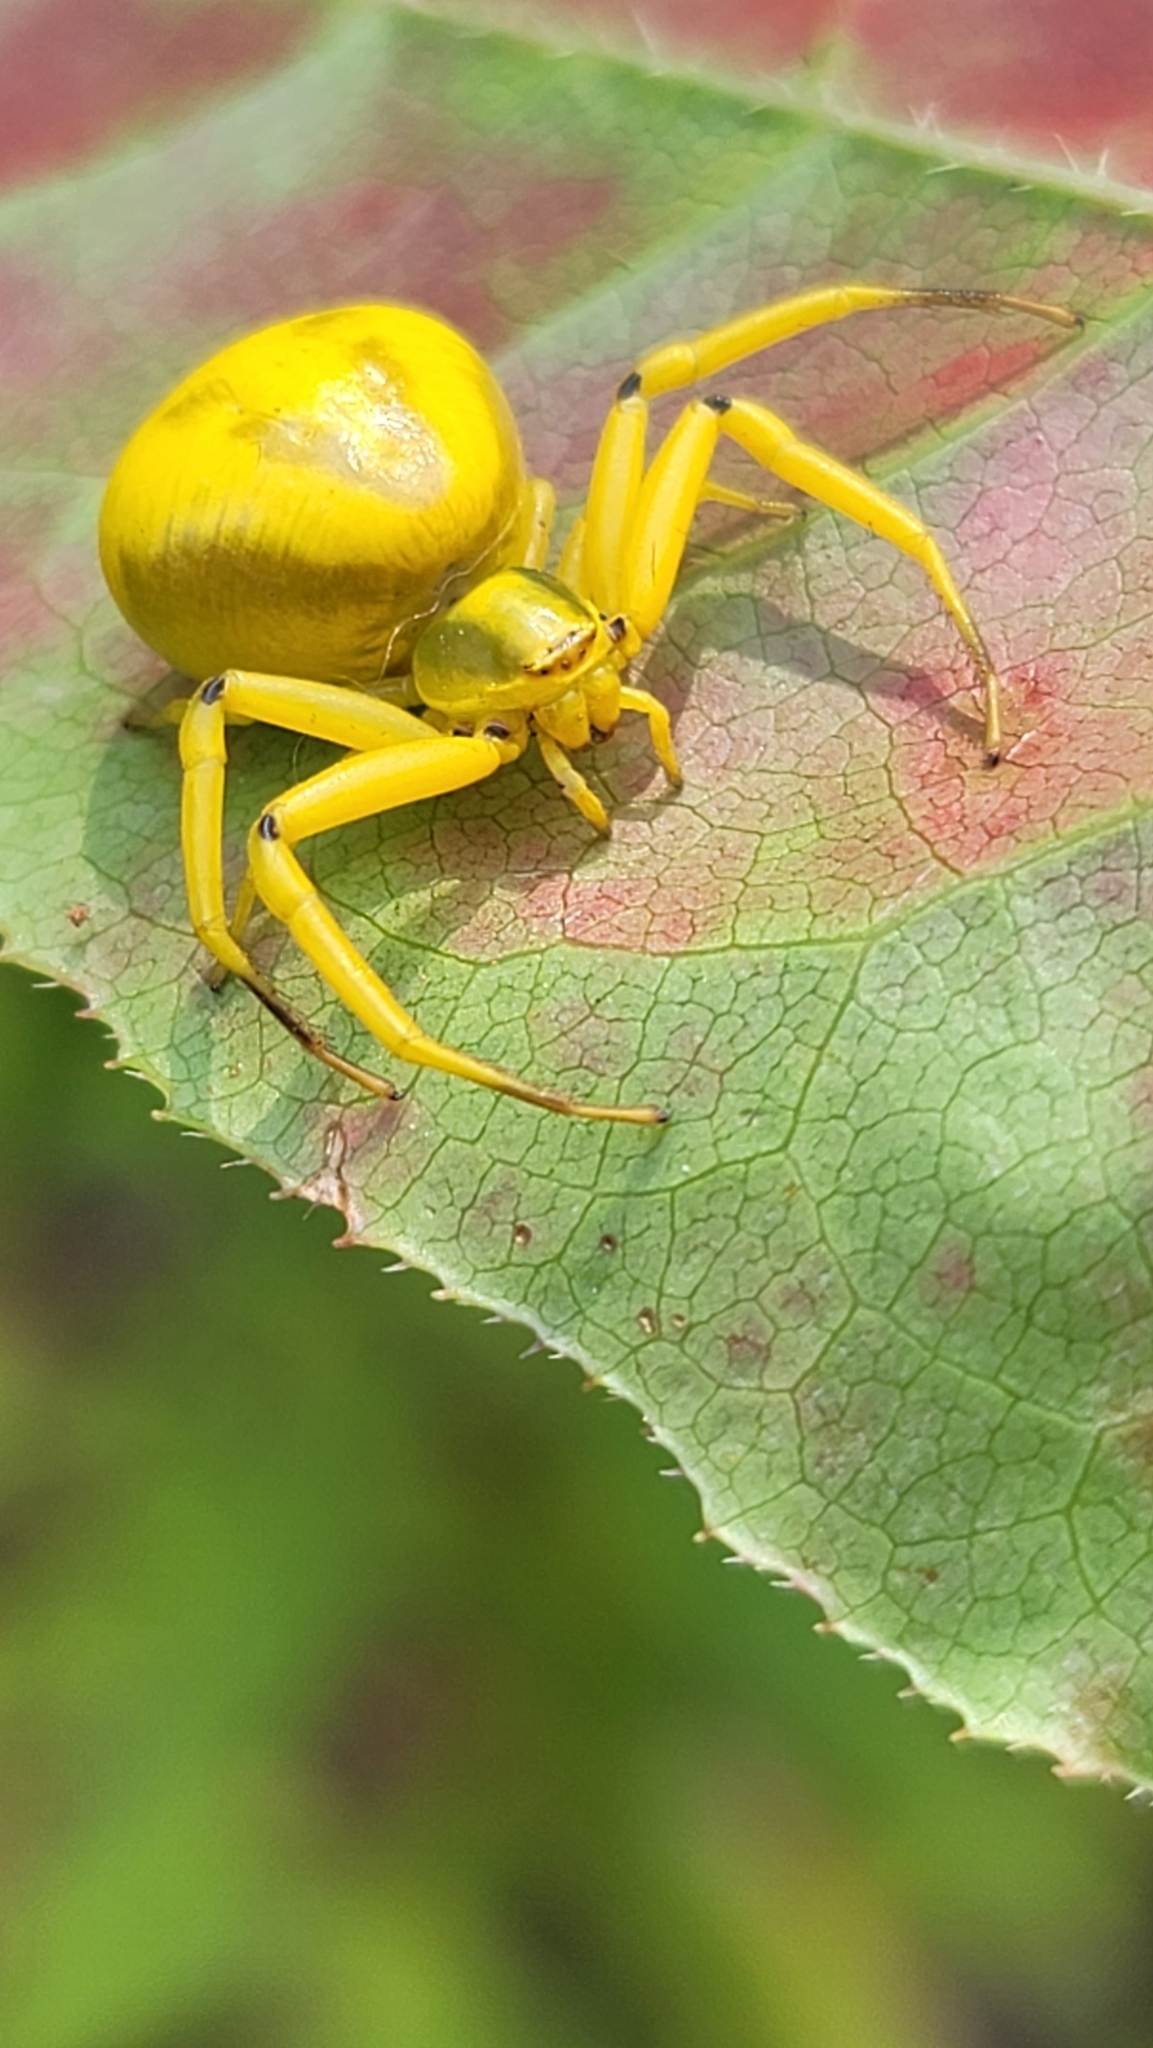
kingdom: Animalia
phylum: Arthropoda
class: Arachnida
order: Araneae
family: Thomisidae
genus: Misumenoides
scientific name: Misumenoides formosipes
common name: White-banded crab spider
